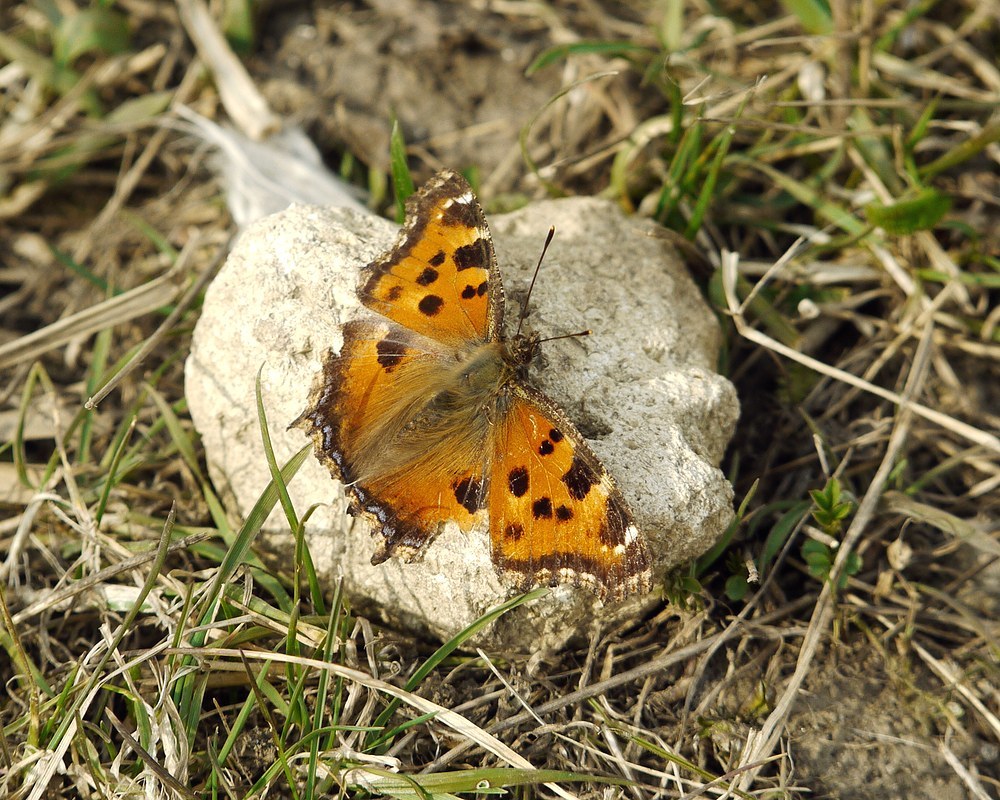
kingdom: Animalia
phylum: Arthropoda
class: Insecta
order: Lepidoptera
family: Nymphalidae
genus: Nymphalis
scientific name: Nymphalis xanthomelas
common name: Scarce tortoiseshell
